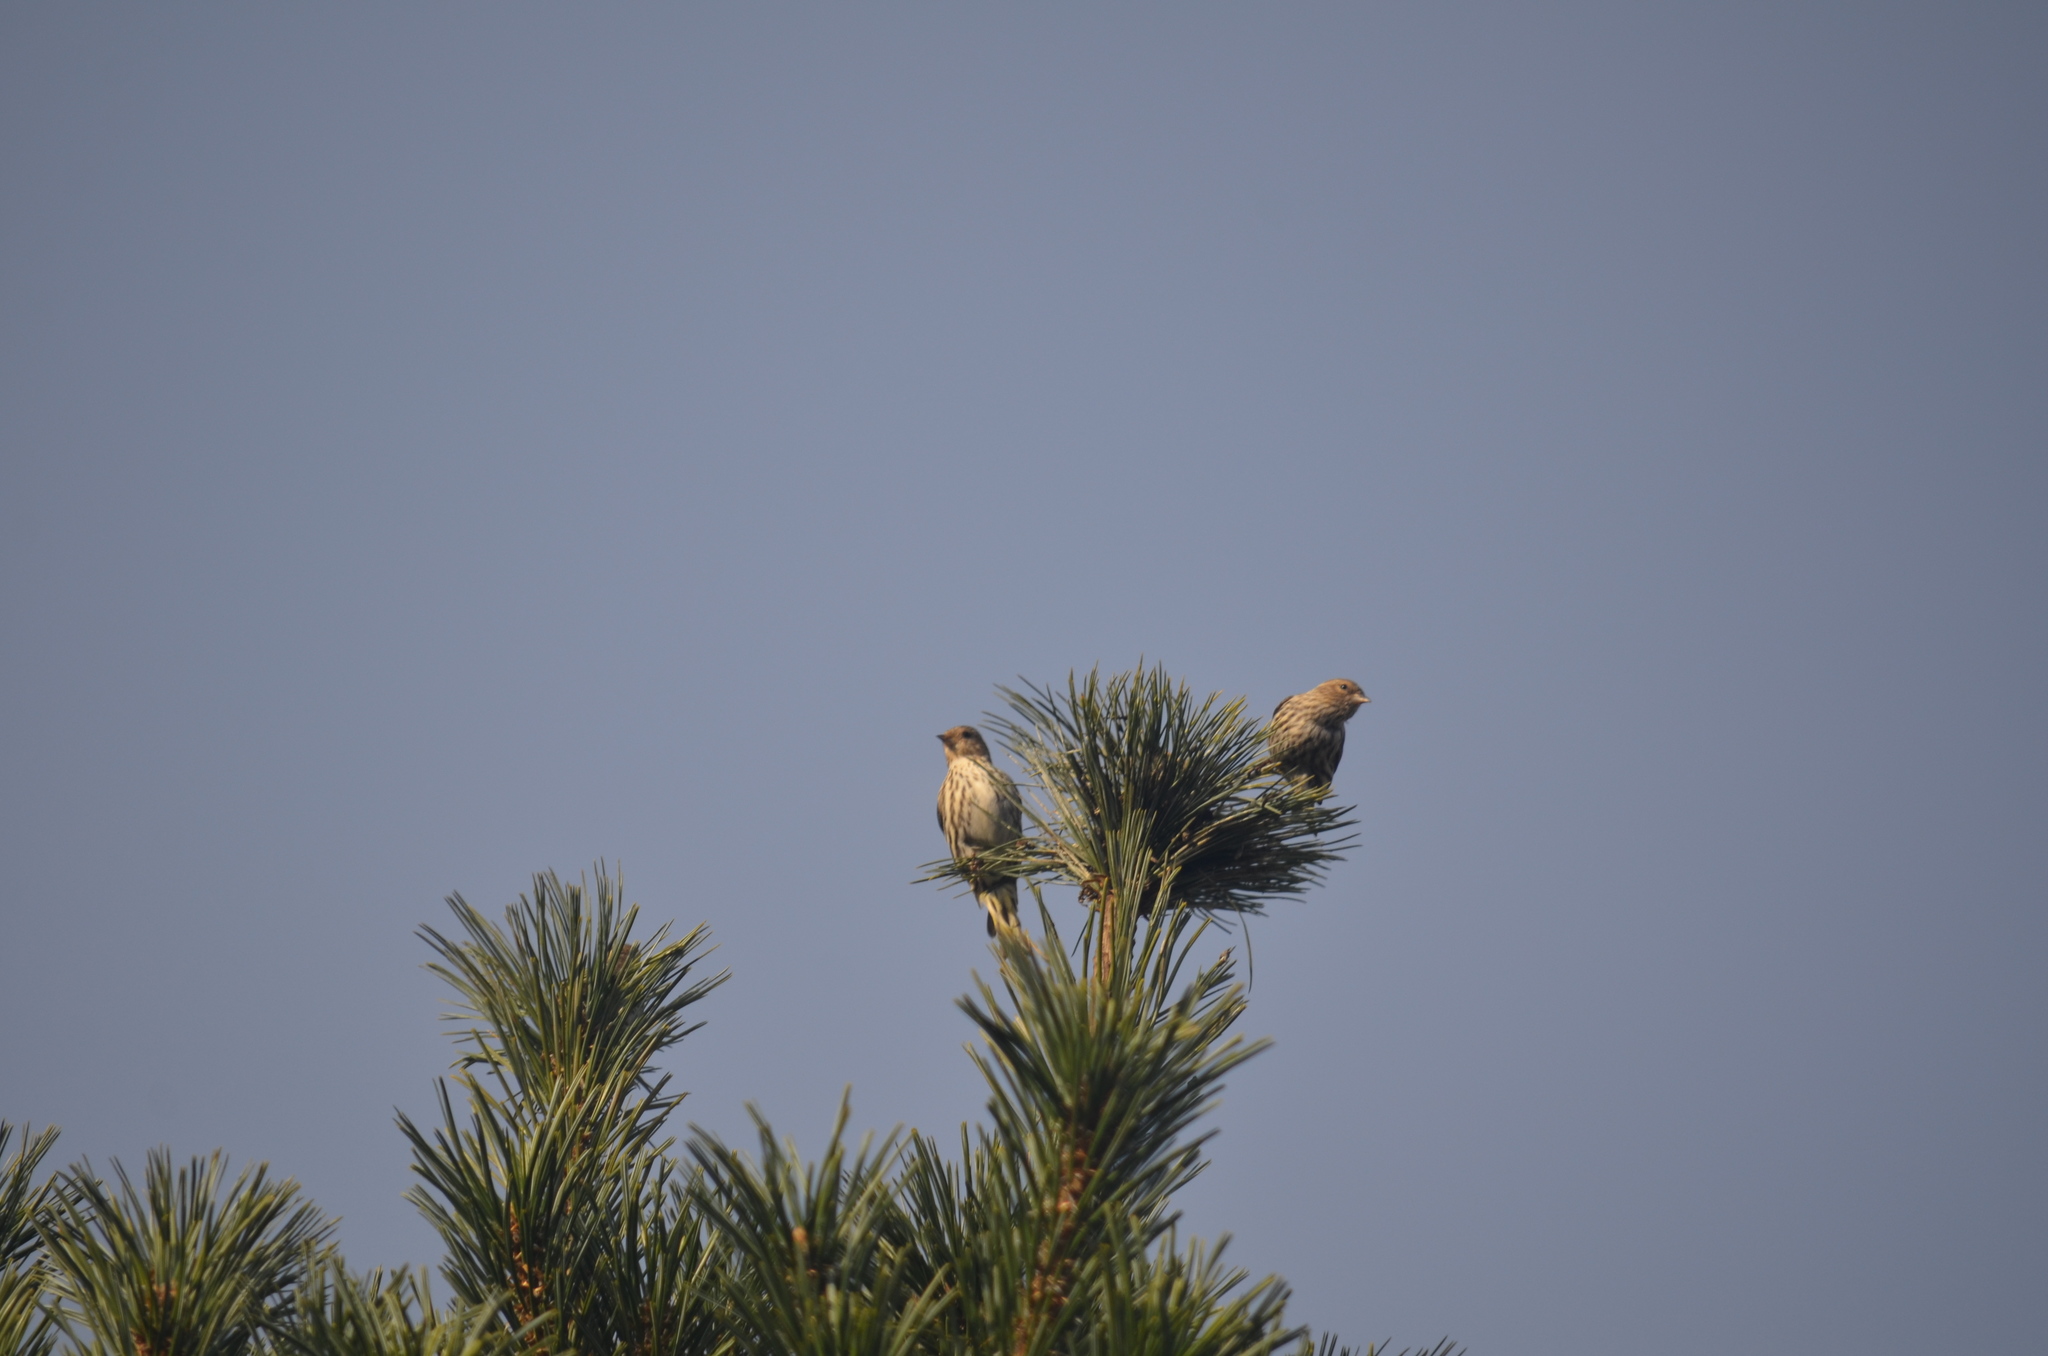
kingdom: Animalia
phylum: Chordata
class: Aves
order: Passeriformes
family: Fringillidae
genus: Spinus
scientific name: Spinus pinus
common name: Pine siskin
